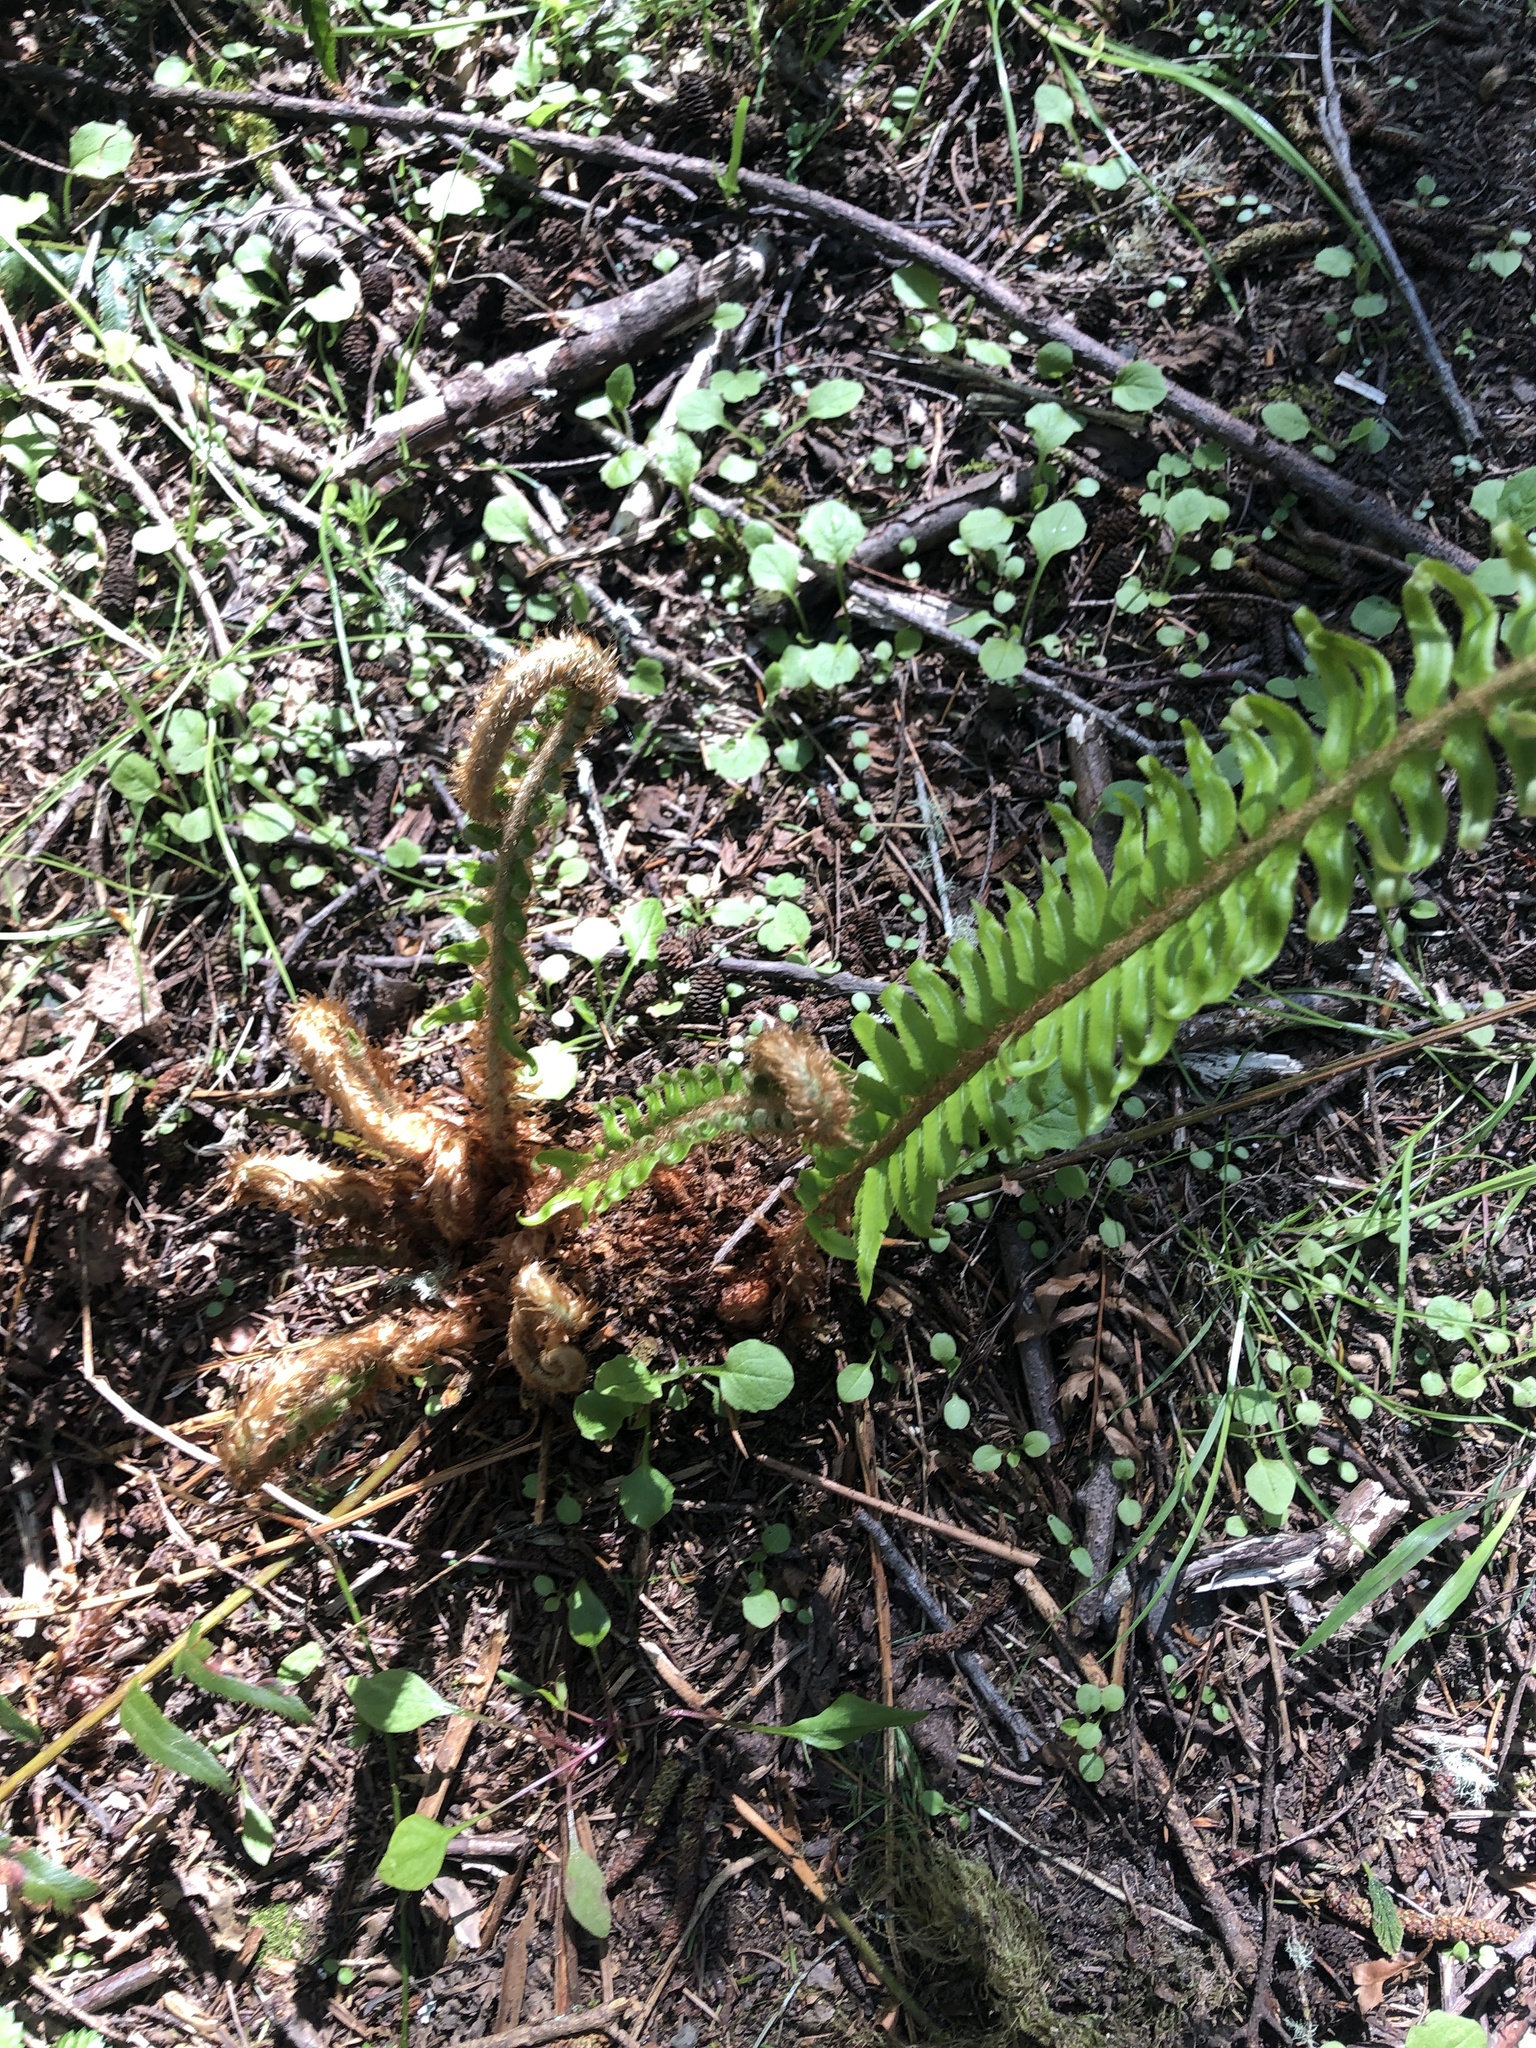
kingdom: Plantae
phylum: Tracheophyta
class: Polypodiopsida
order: Polypodiales
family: Dryopteridaceae
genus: Polystichum
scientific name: Polystichum munitum
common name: Western sword-fern
